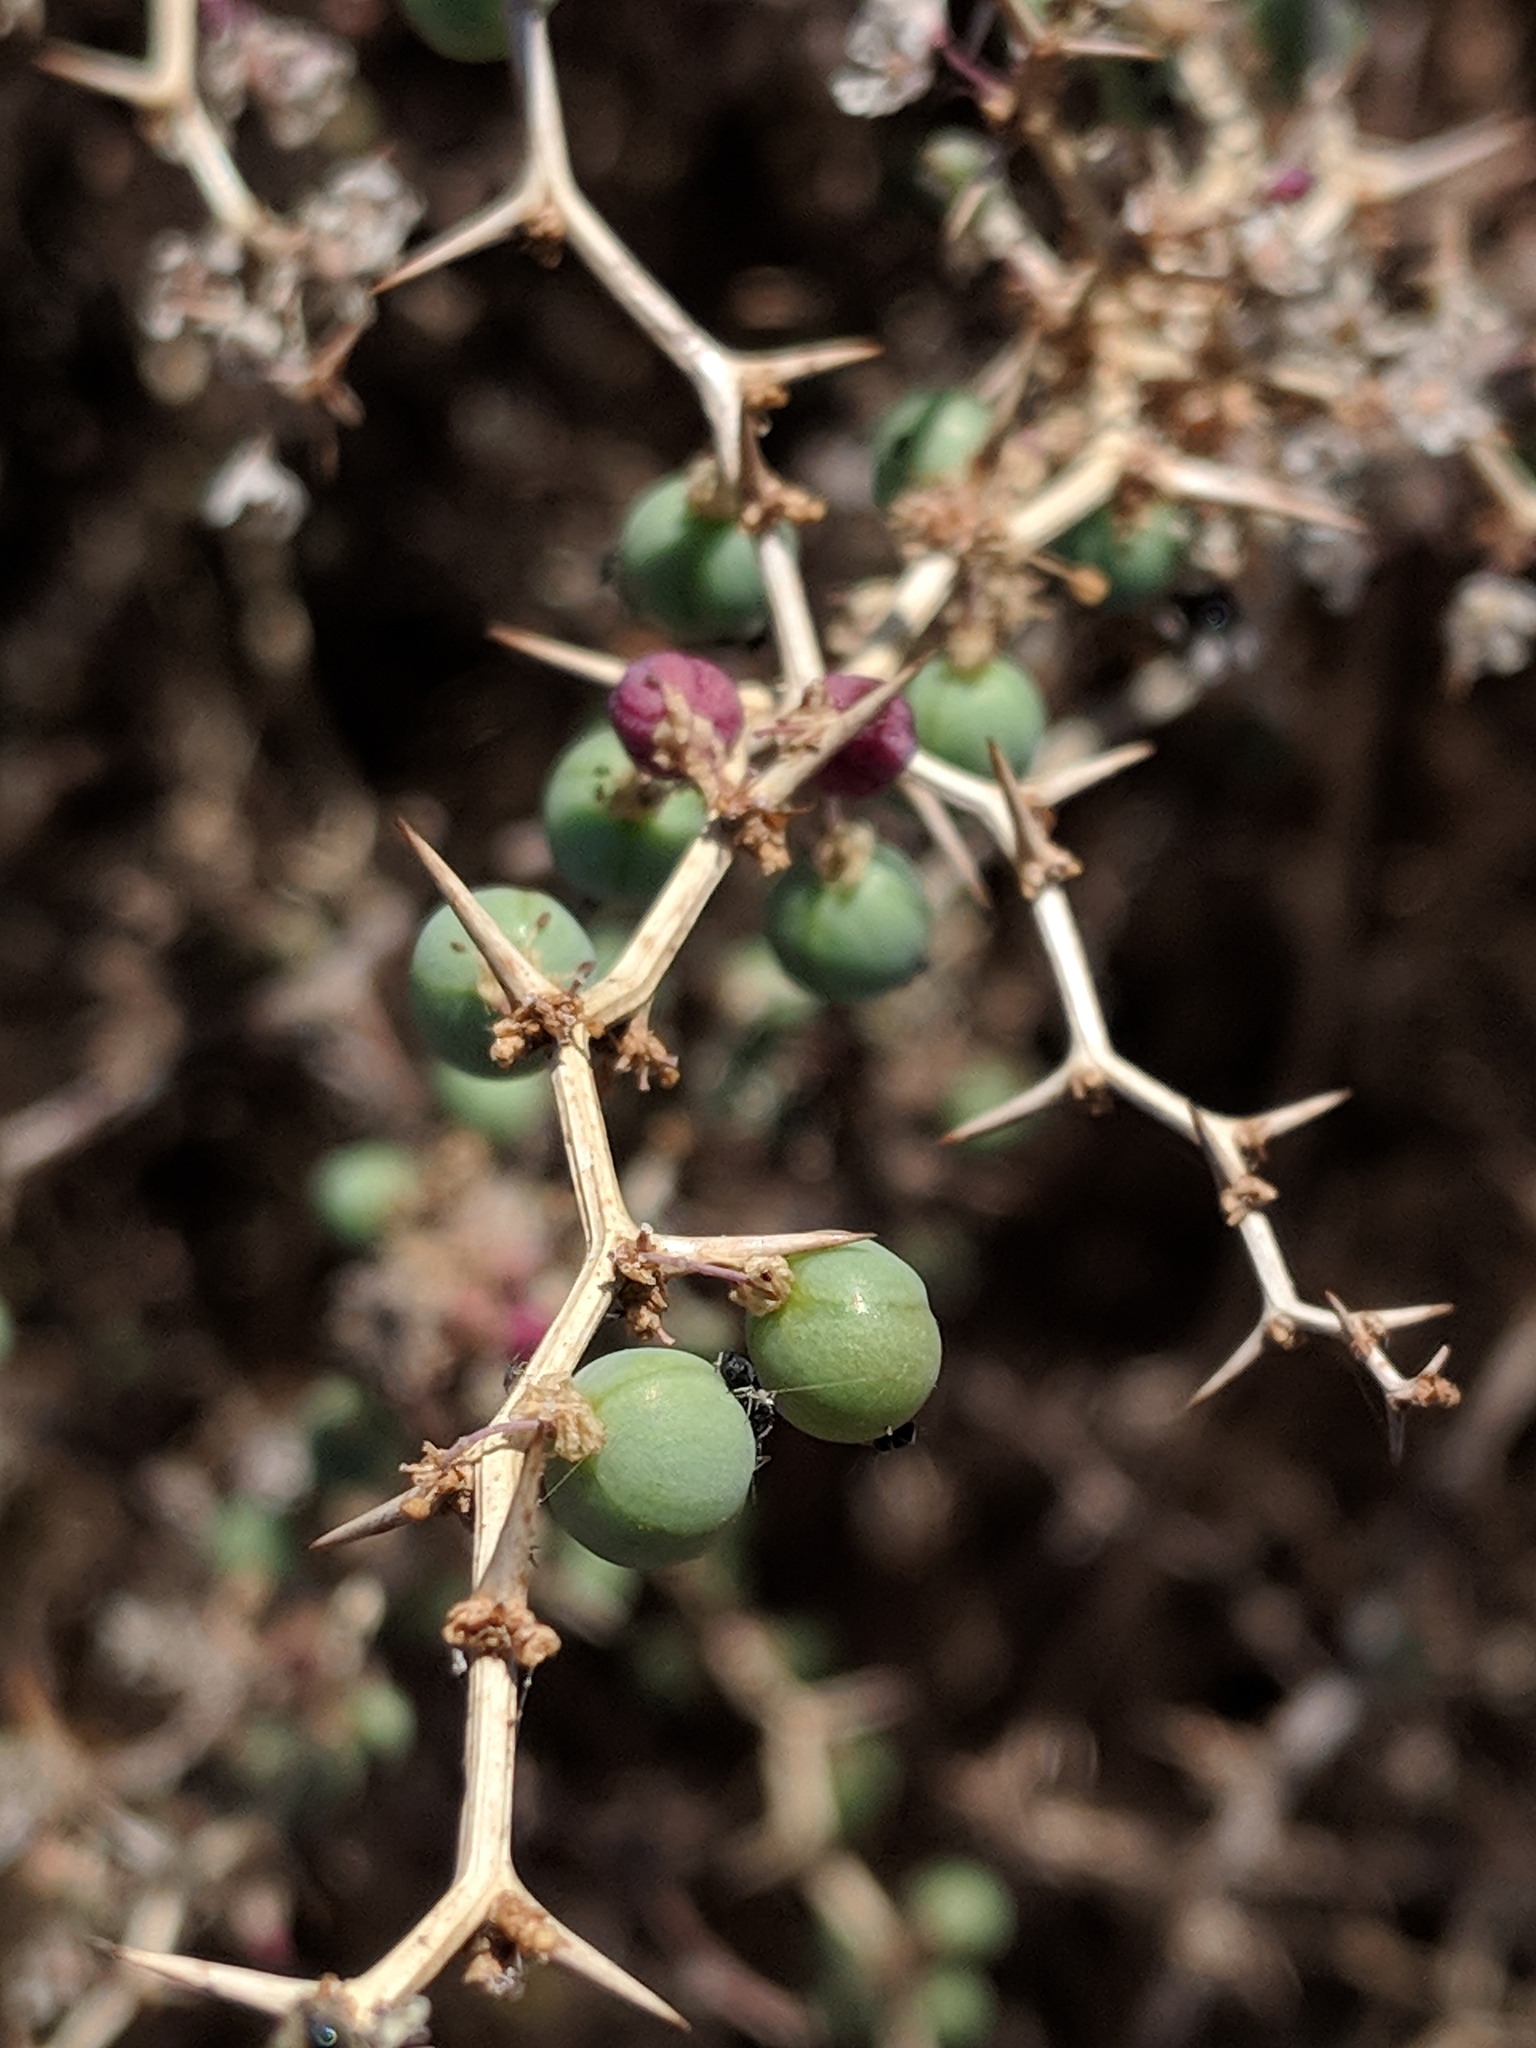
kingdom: Plantae
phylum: Tracheophyta
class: Liliopsida
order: Asparagales
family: Asparagaceae
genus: Asparagus
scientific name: Asparagus albus
